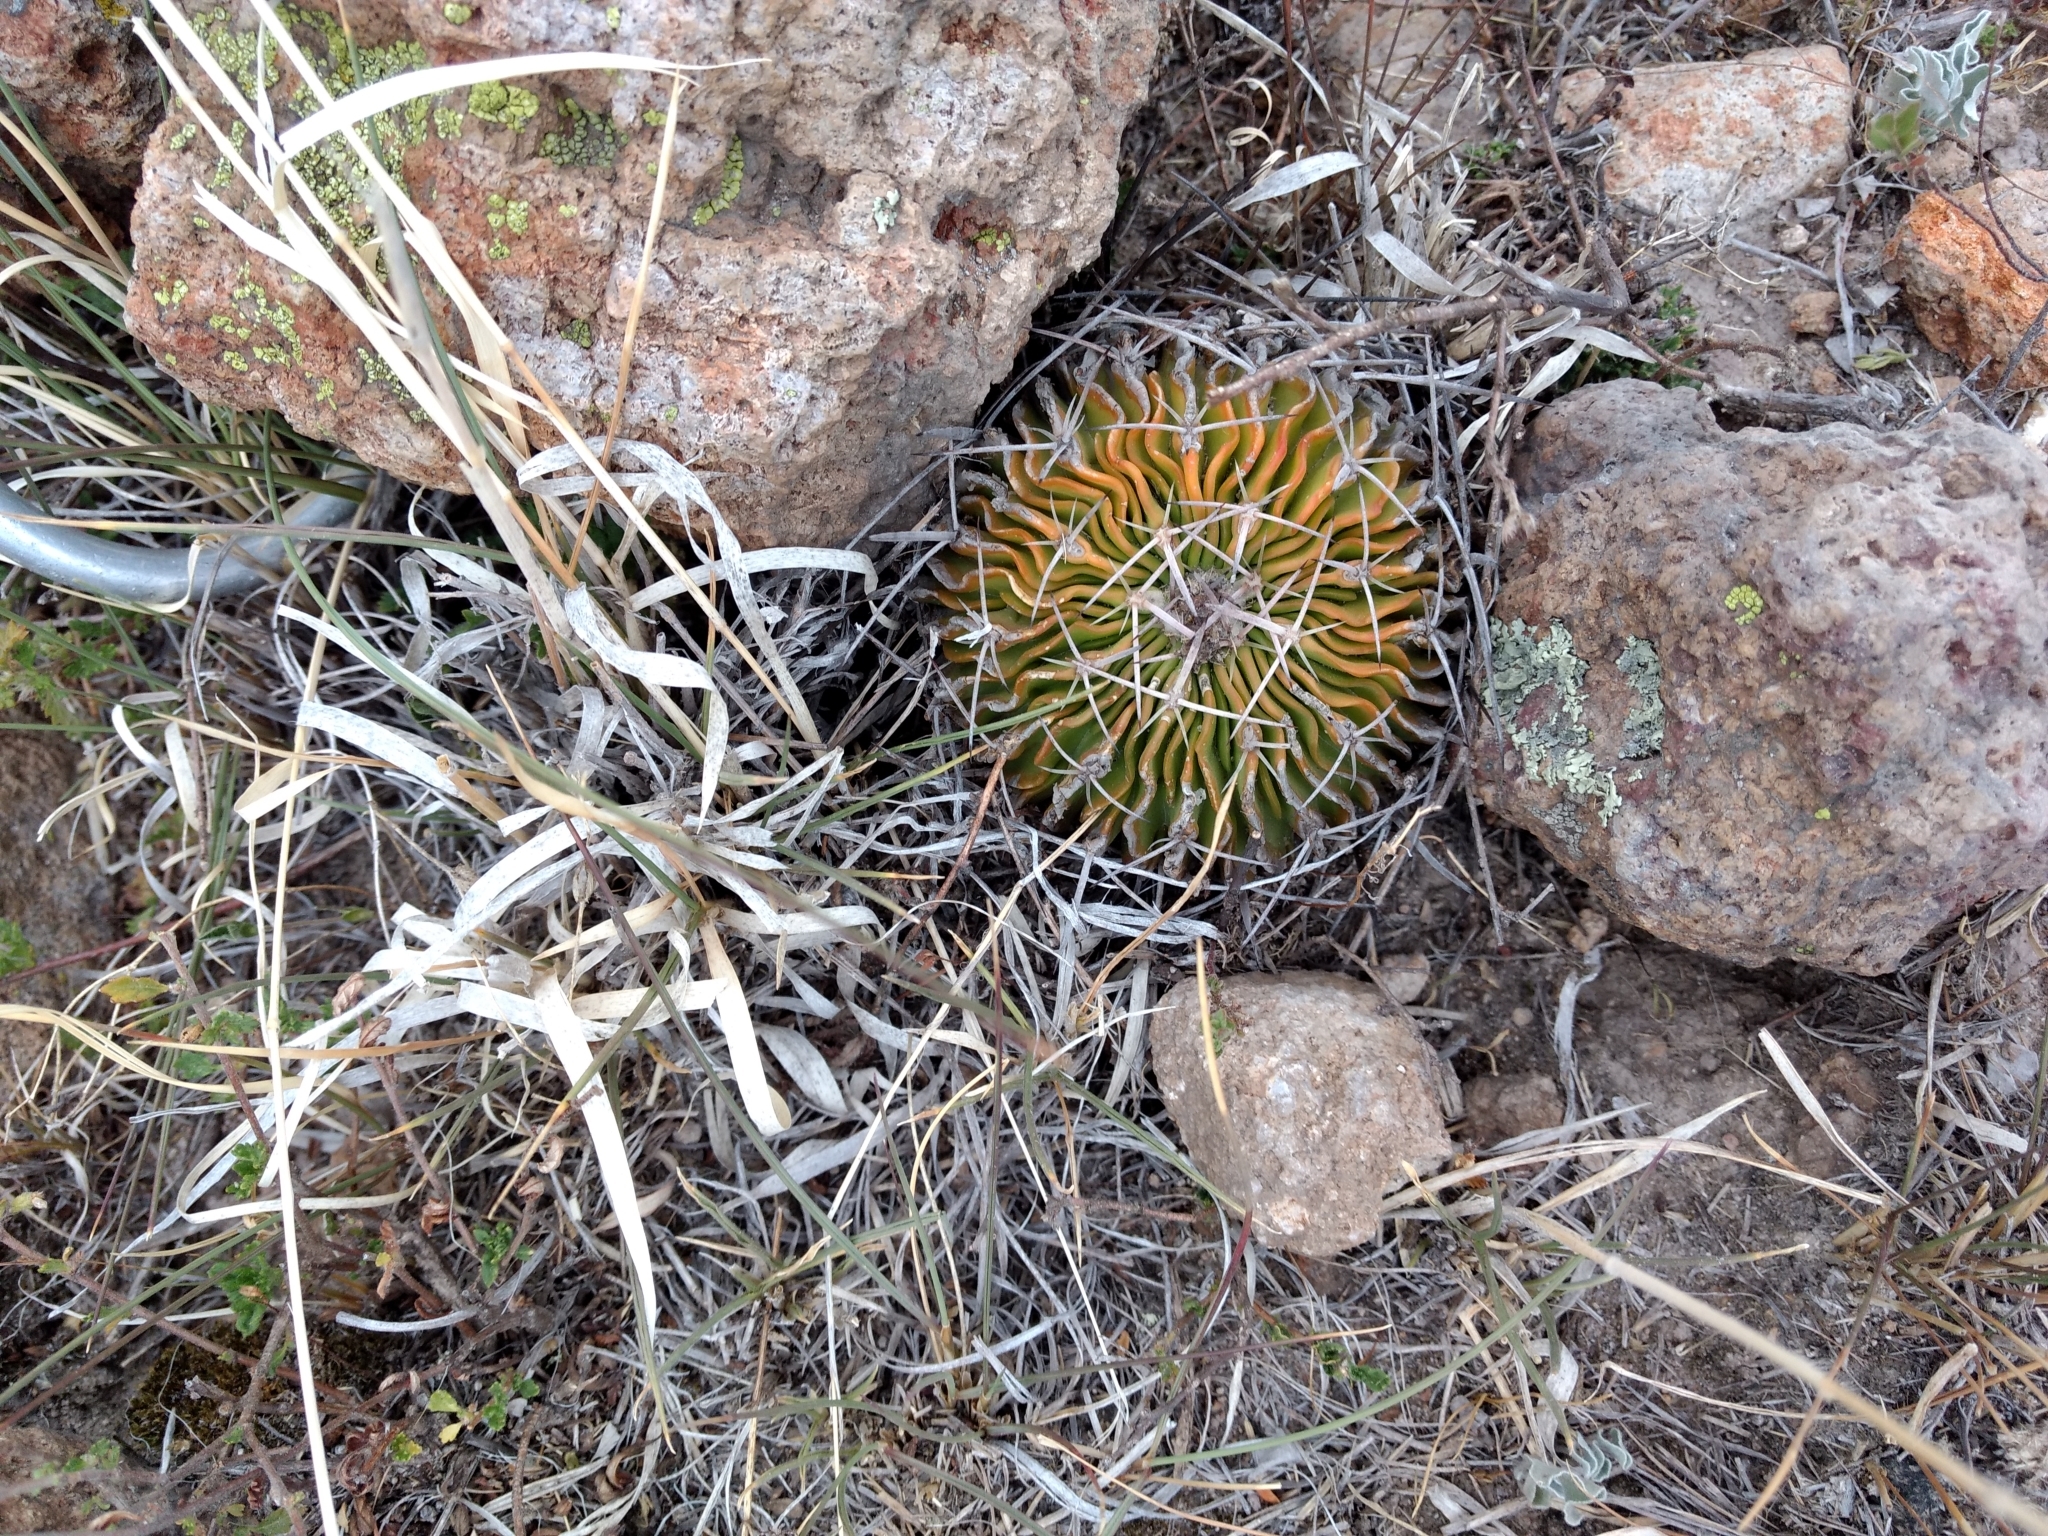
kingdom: Plantae
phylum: Tracheophyta
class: Magnoliopsida
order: Caryophyllales
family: Cactaceae
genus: Stenocactus
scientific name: Stenocactus crispatus
